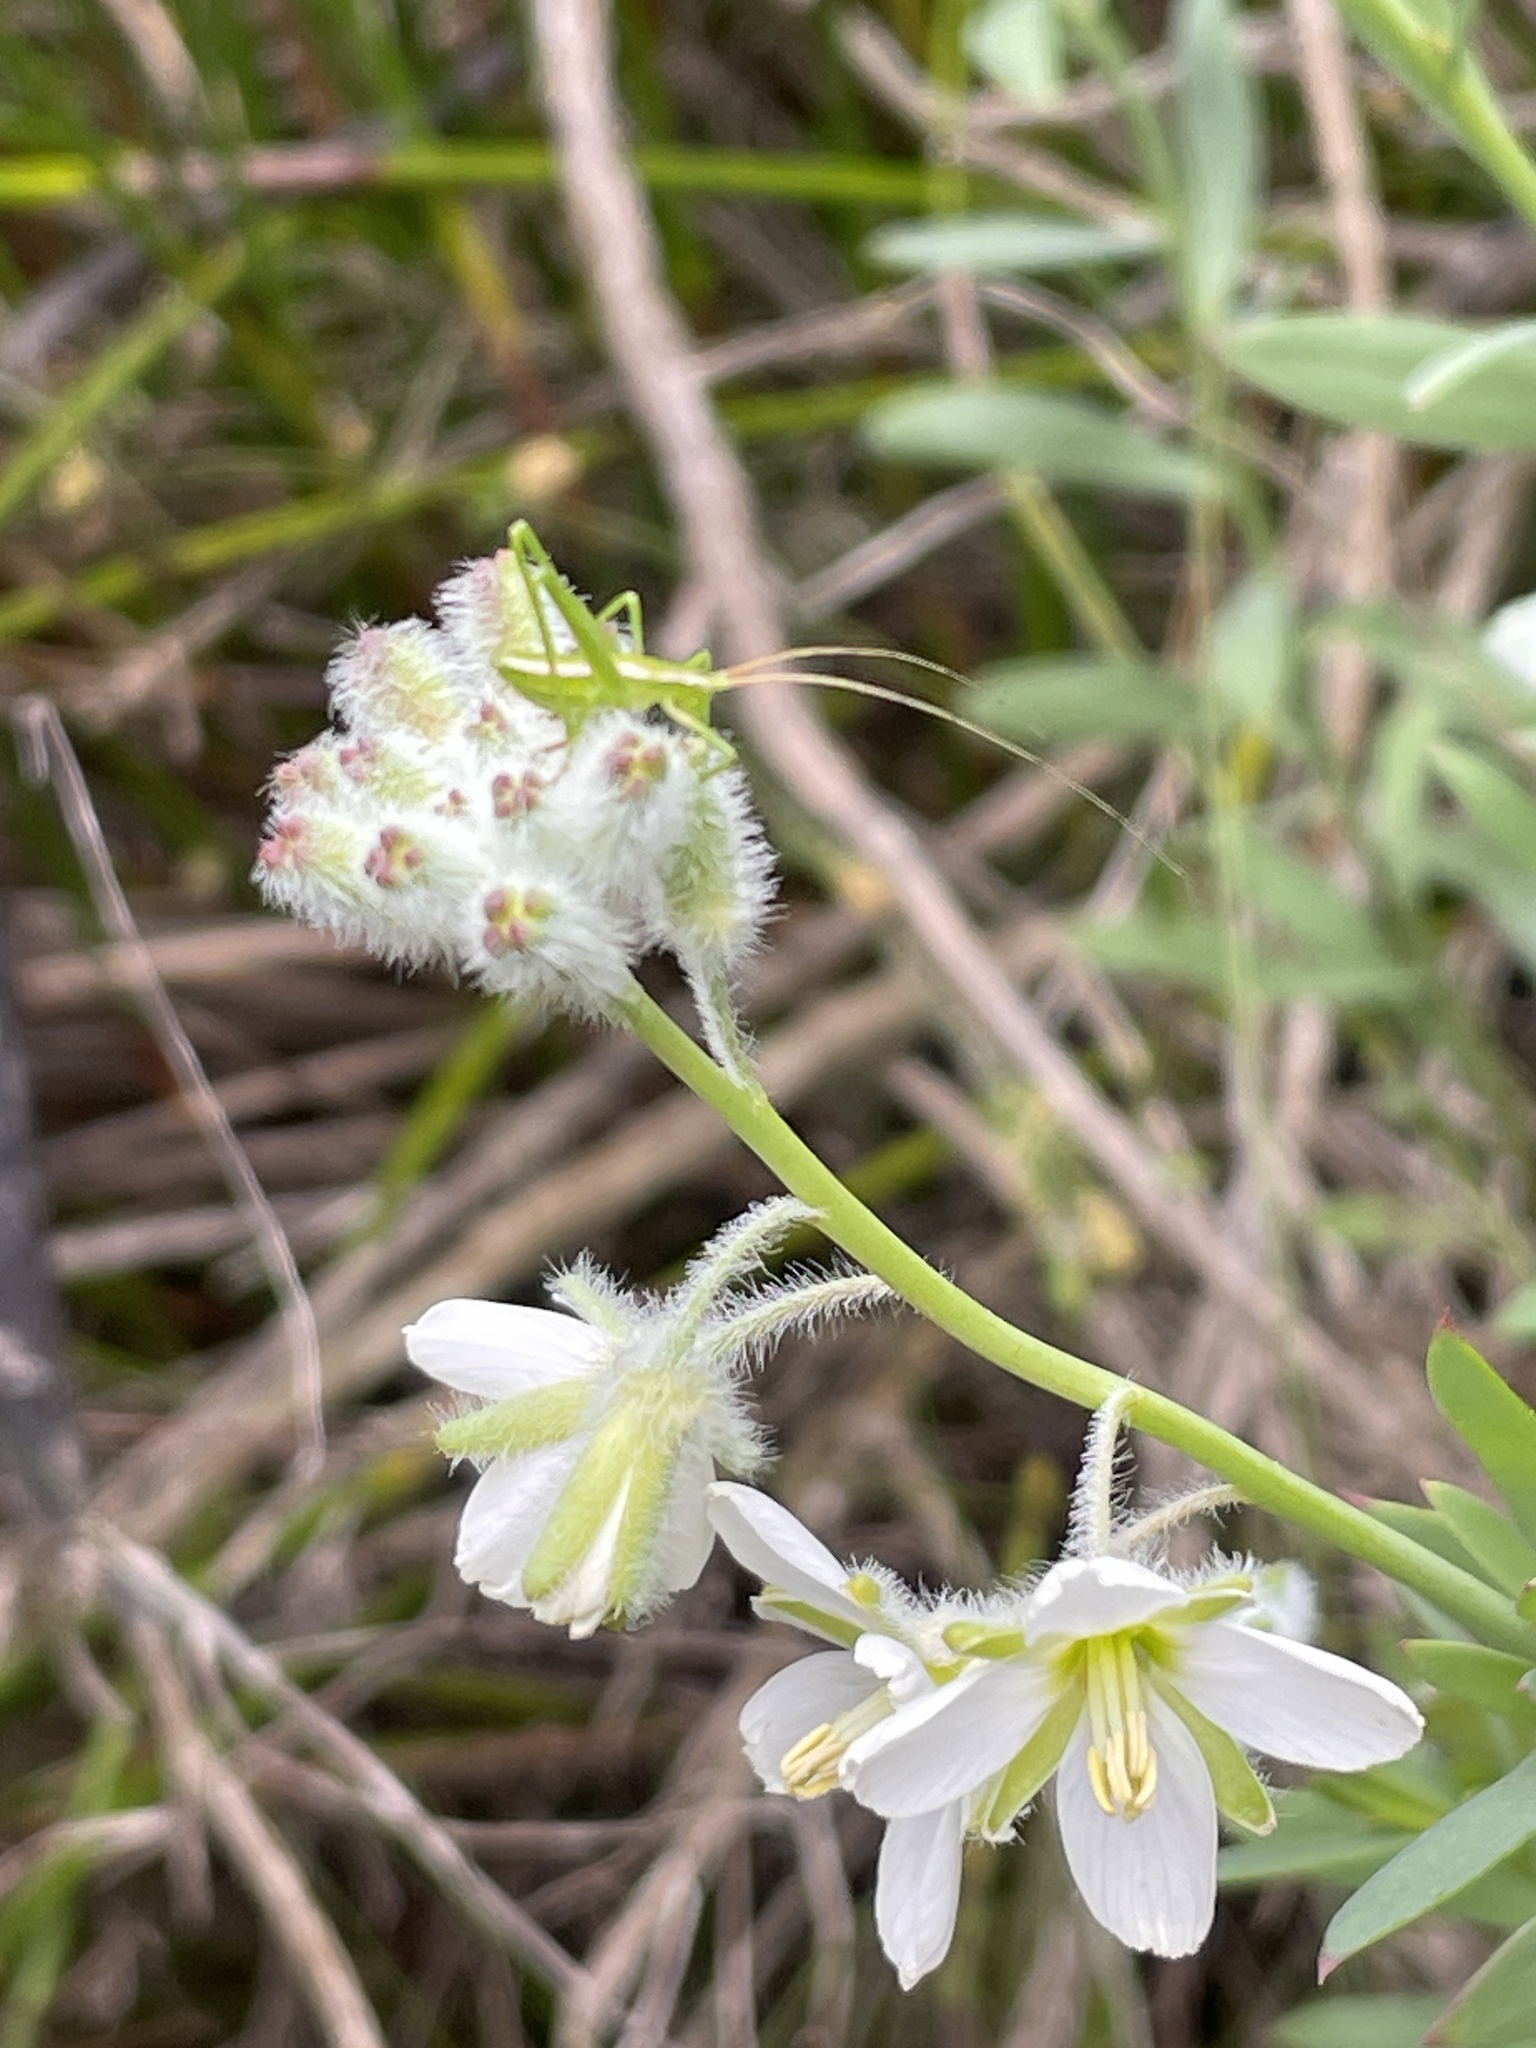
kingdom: Plantae
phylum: Tracheophyta
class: Magnoliopsida
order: Brassicales
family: Brassicaceae
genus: Heliophila
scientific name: Heliophila linearis
